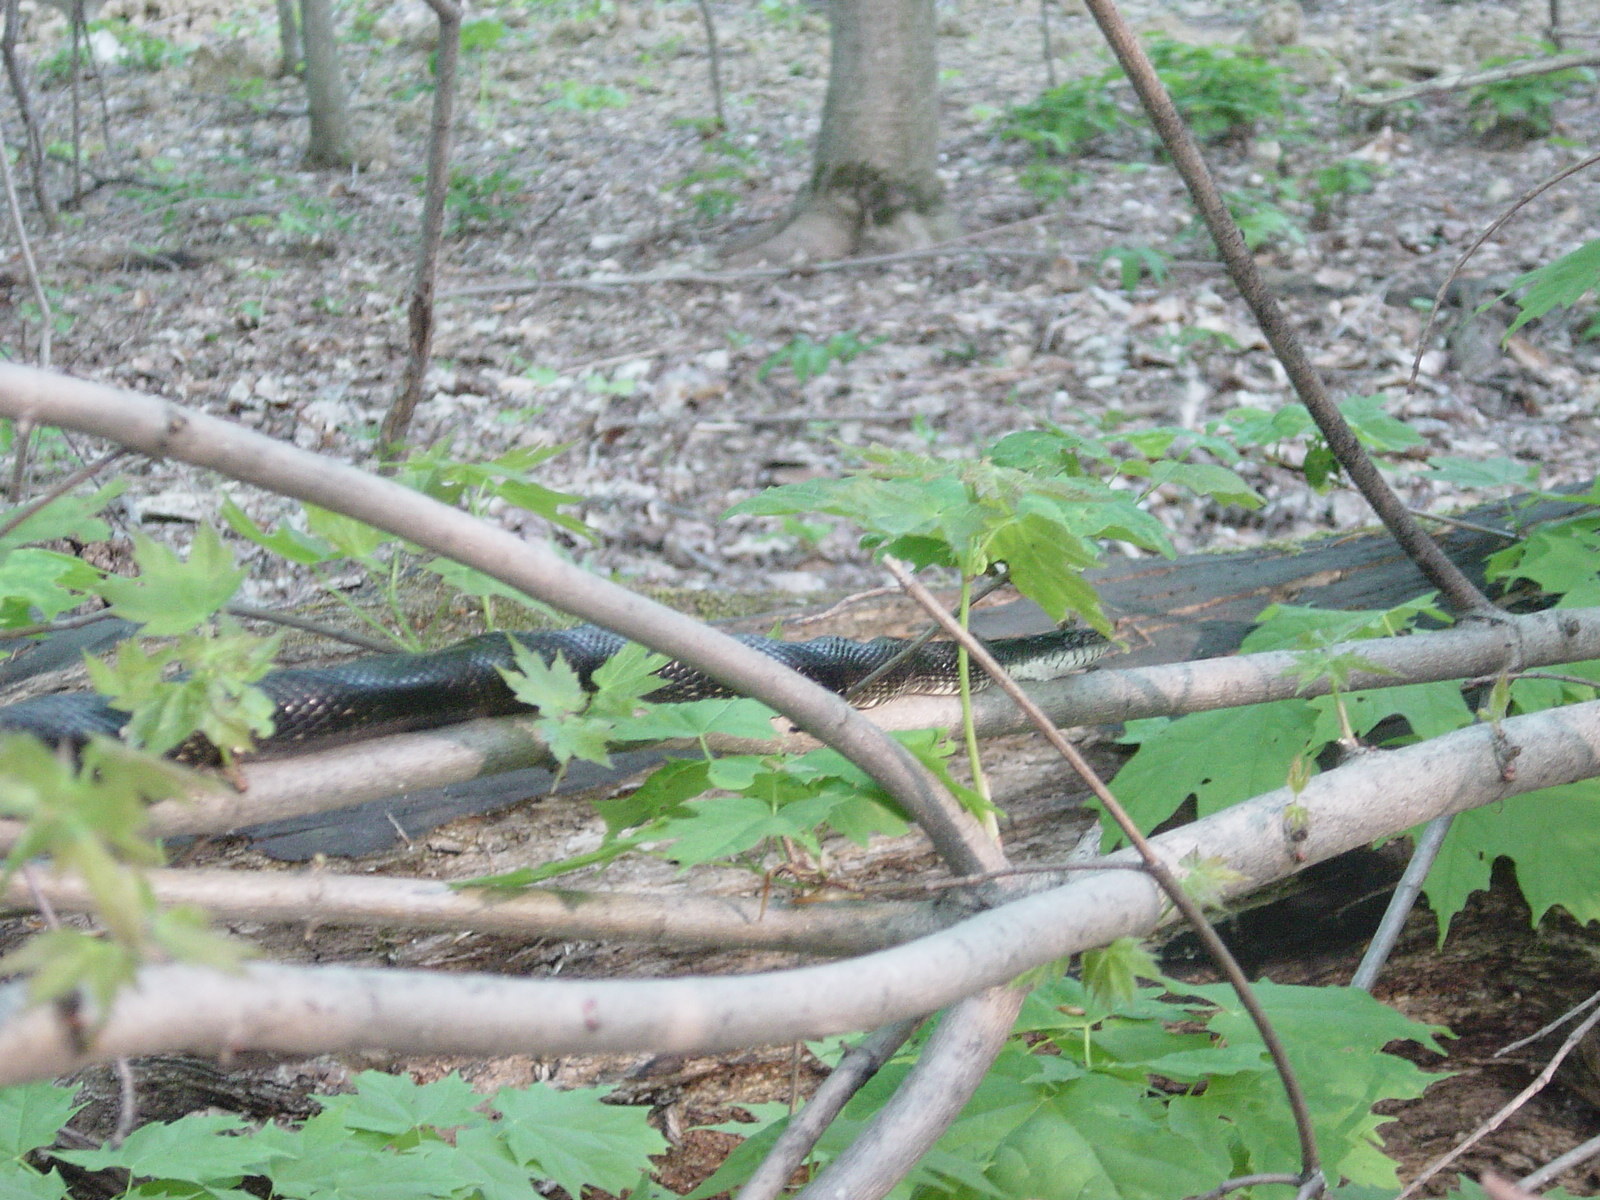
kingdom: Animalia
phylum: Chordata
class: Squamata
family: Colubridae
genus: Pantherophis
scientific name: Pantherophis spiloides
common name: Gray rat snake
